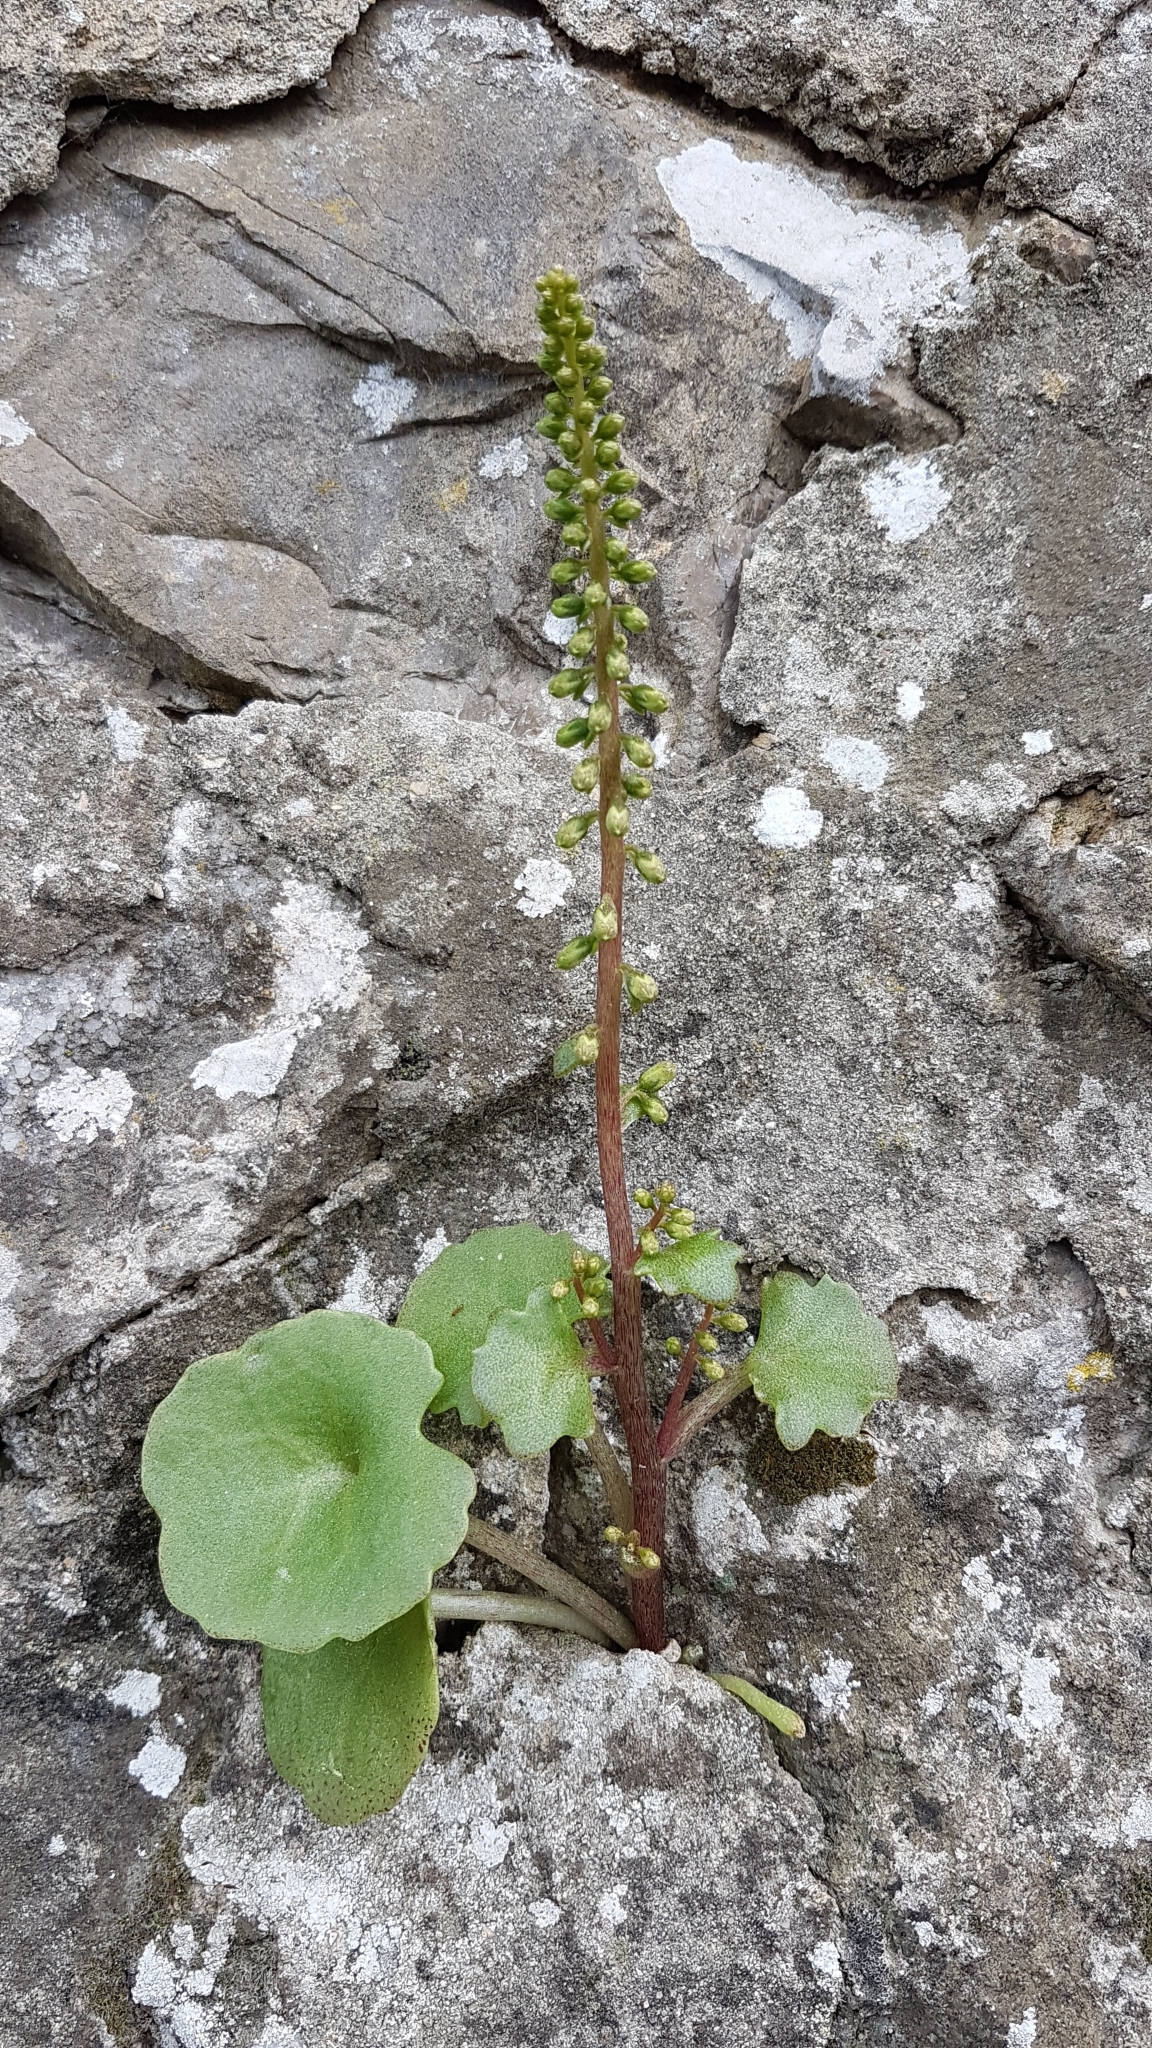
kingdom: Plantae
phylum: Tracheophyta
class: Magnoliopsida
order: Saxifragales
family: Crassulaceae
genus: Umbilicus
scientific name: Umbilicus rupestris
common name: Navelwort
